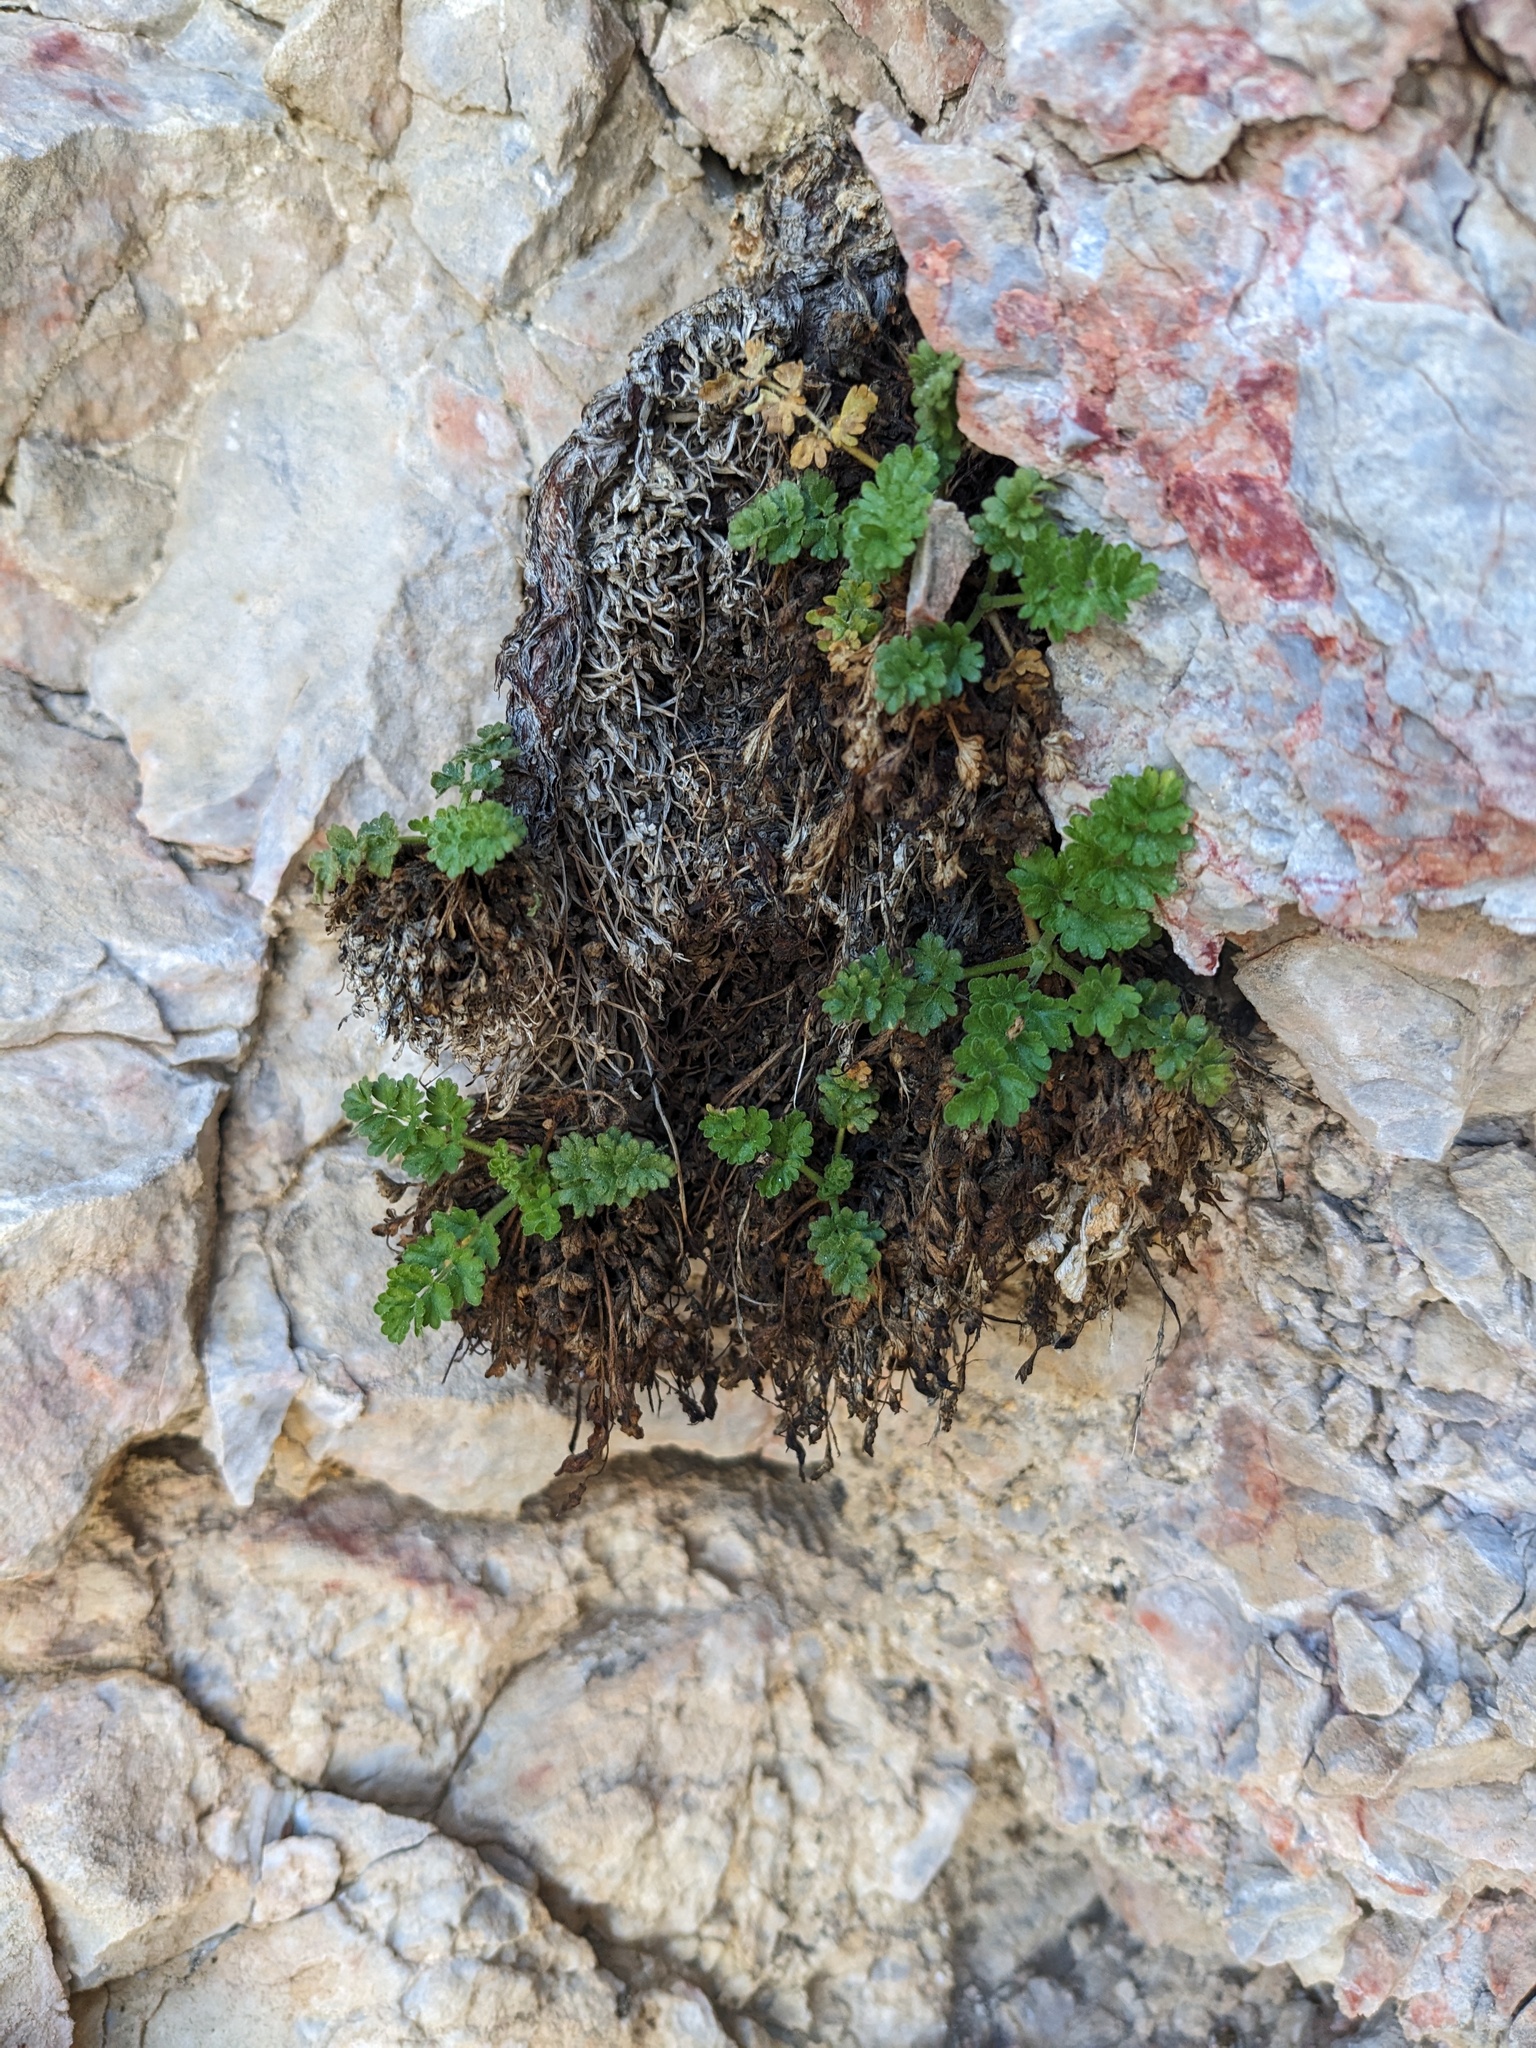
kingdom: Plantae
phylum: Tracheophyta
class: Magnoliopsida
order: Rosales
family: Rosaceae
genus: Potentilla
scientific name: Potentilla osterhoutii
